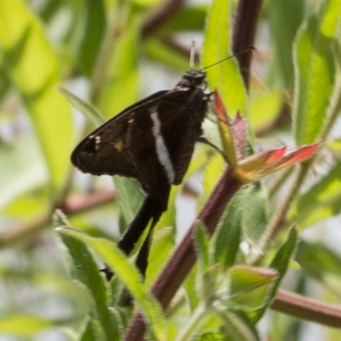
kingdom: Animalia
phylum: Arthropoda
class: Insecta
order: Lepidoptera
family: Hesperiidae
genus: Chioides
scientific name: Chioides catillus
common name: Silverbanded skipper
